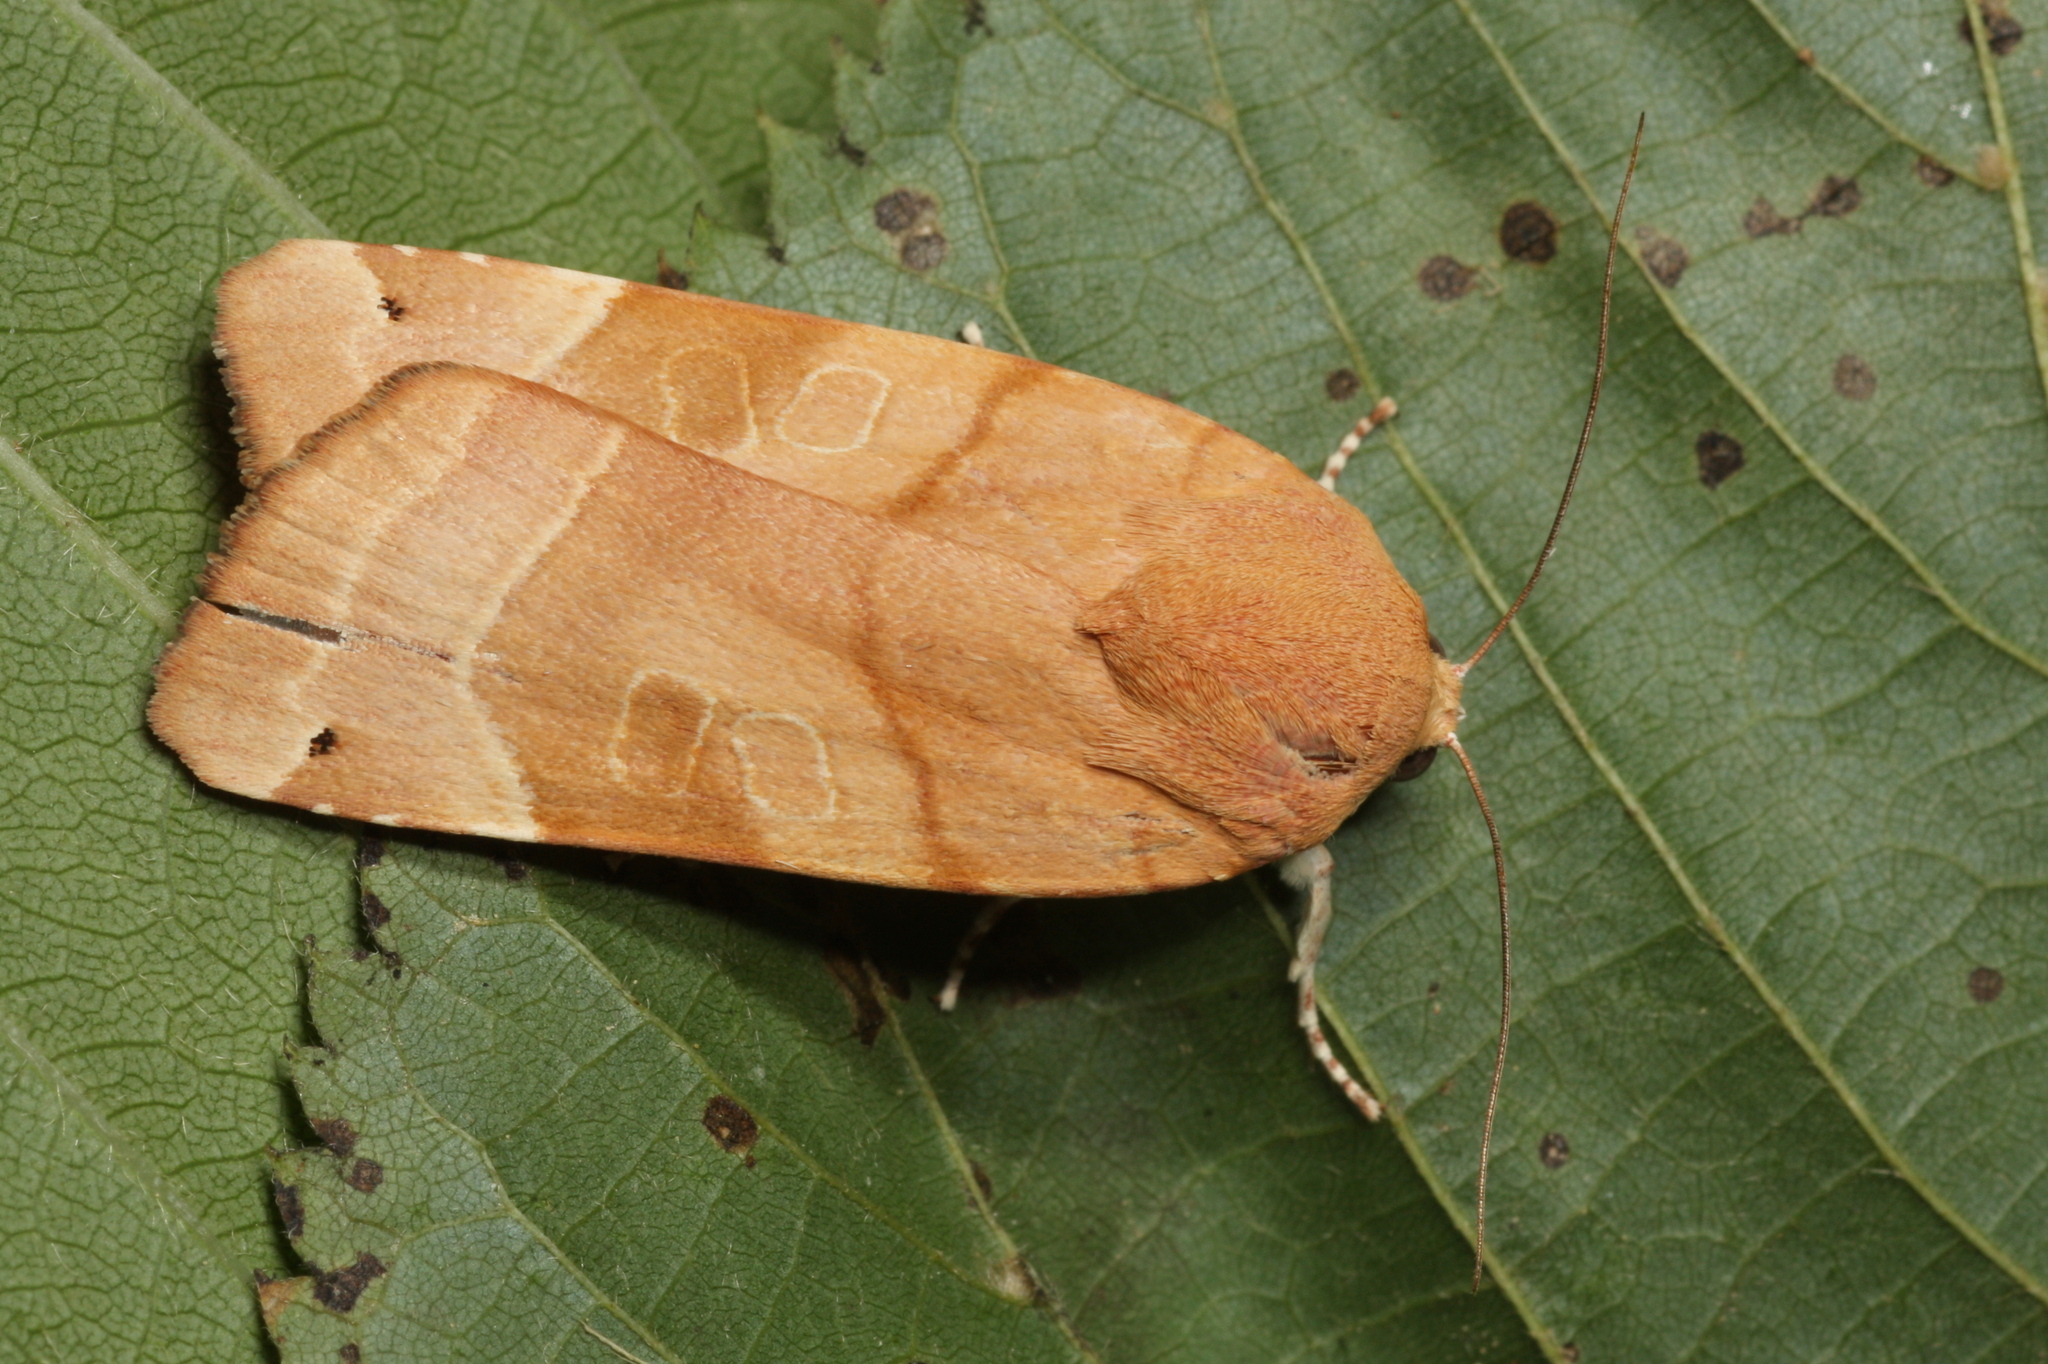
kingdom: Animalia
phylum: Arthropoda
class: Insecta
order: Lepidoptera
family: Noctuidae
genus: Noctua
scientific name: Noctua fimbriata
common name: Broad-bordered yellow underwing
